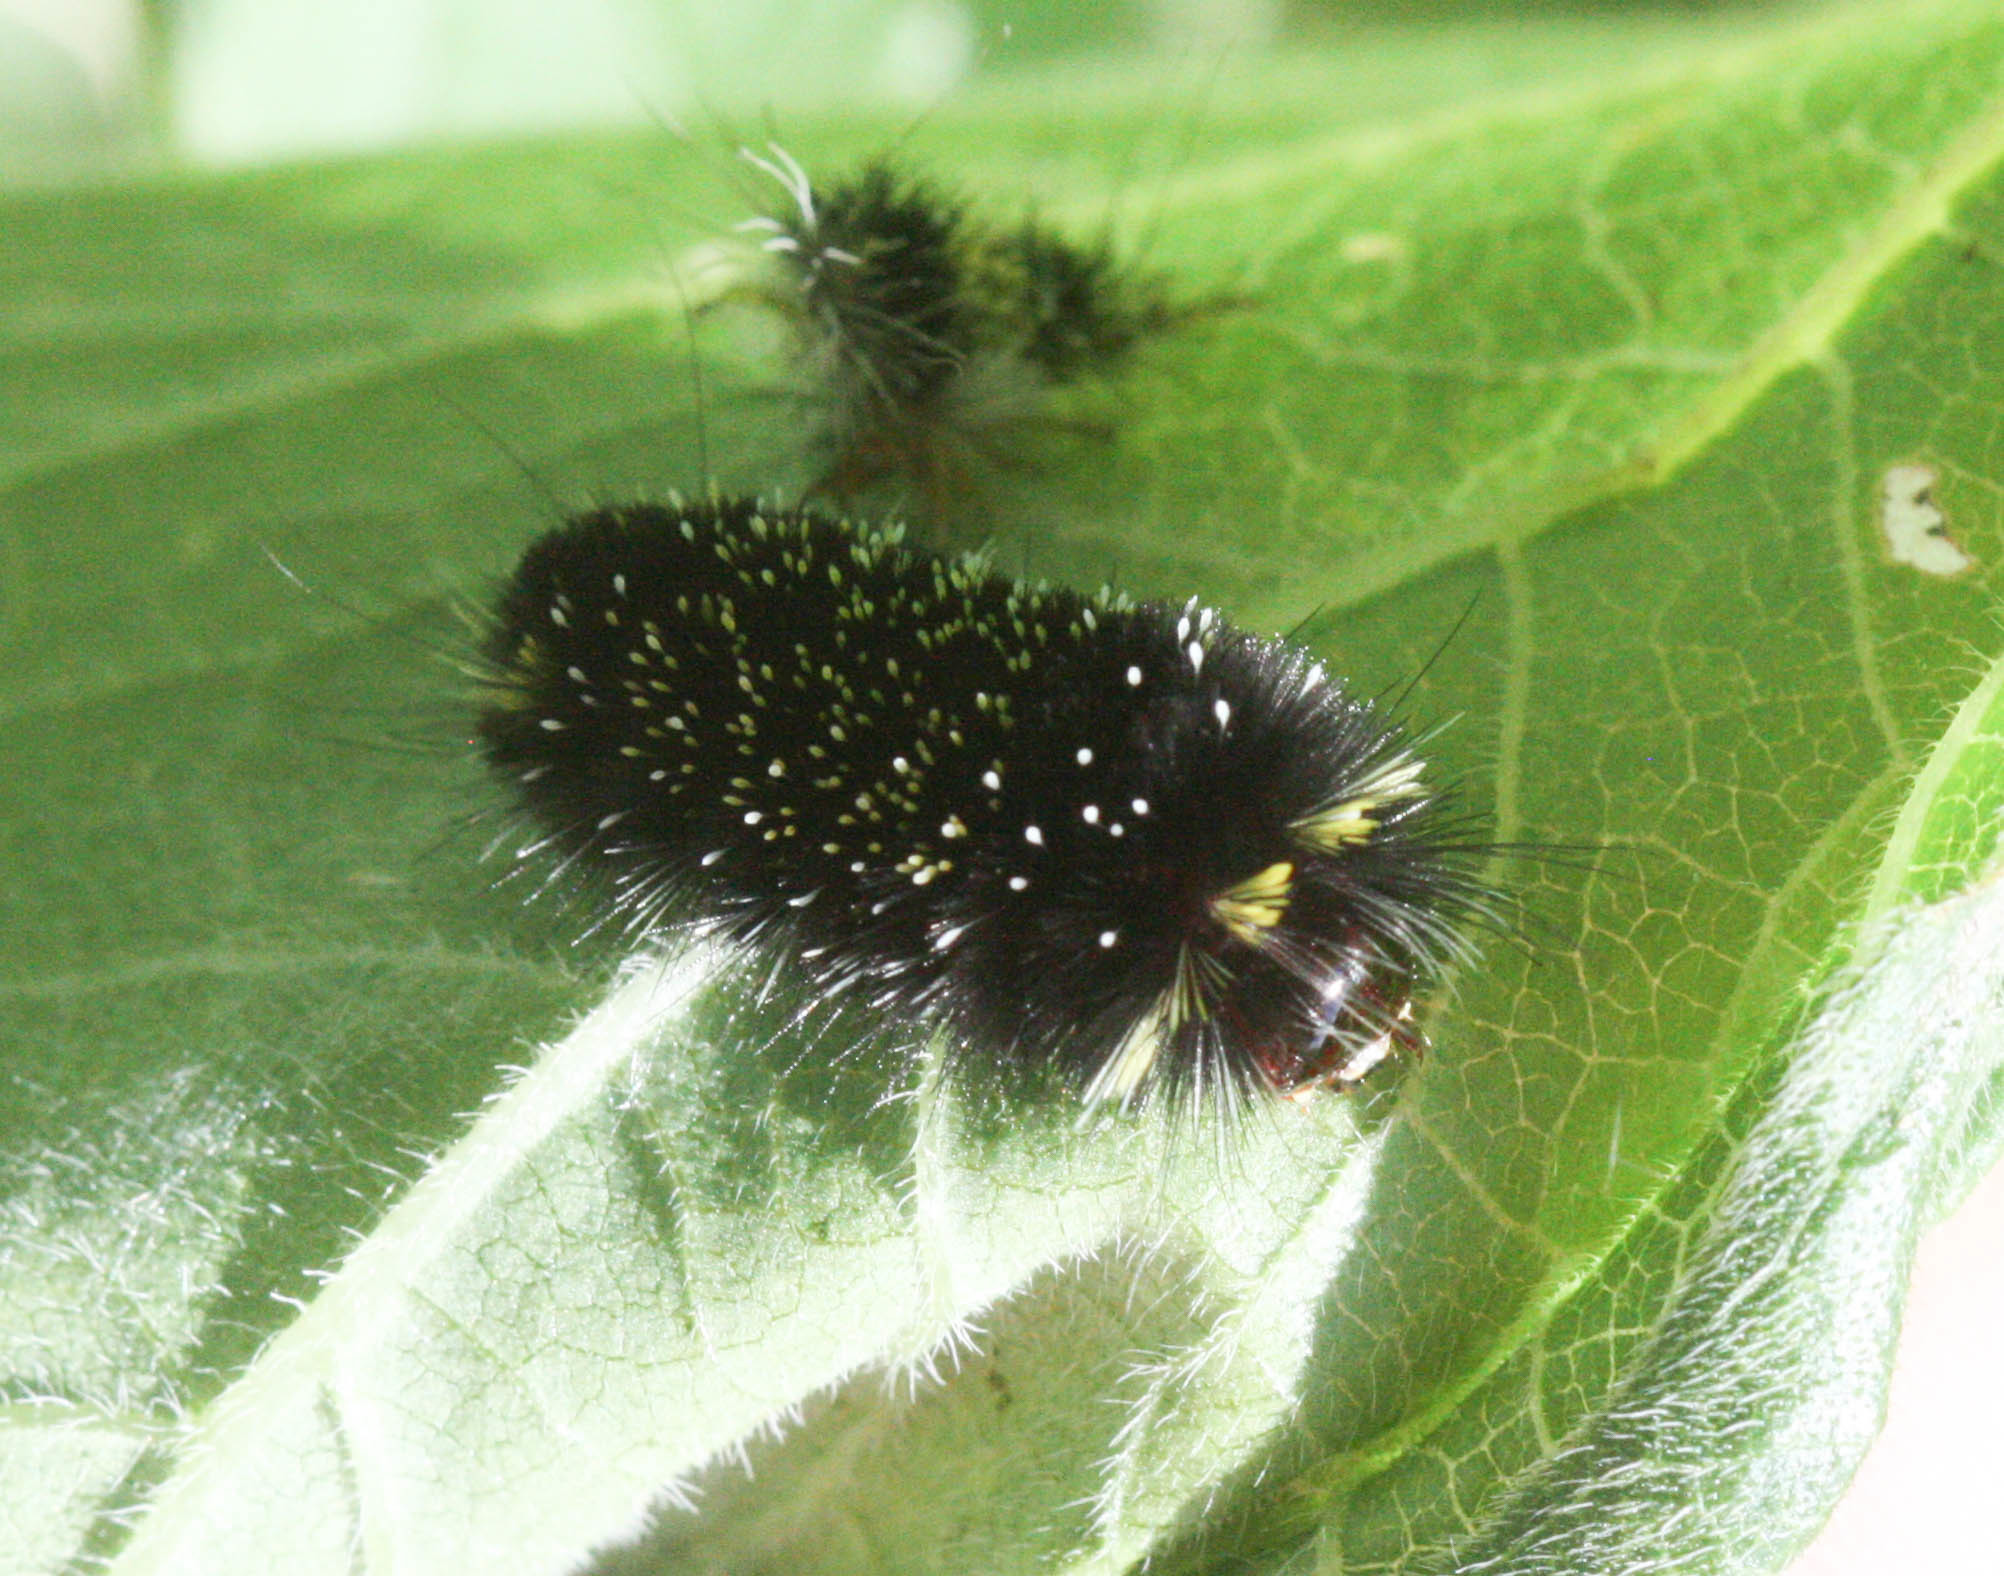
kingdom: Animalia
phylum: Arthropoda
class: Insecta
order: Lepidoptera
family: Erebidae
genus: Hypocrisias
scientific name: Hypocrisias minima
